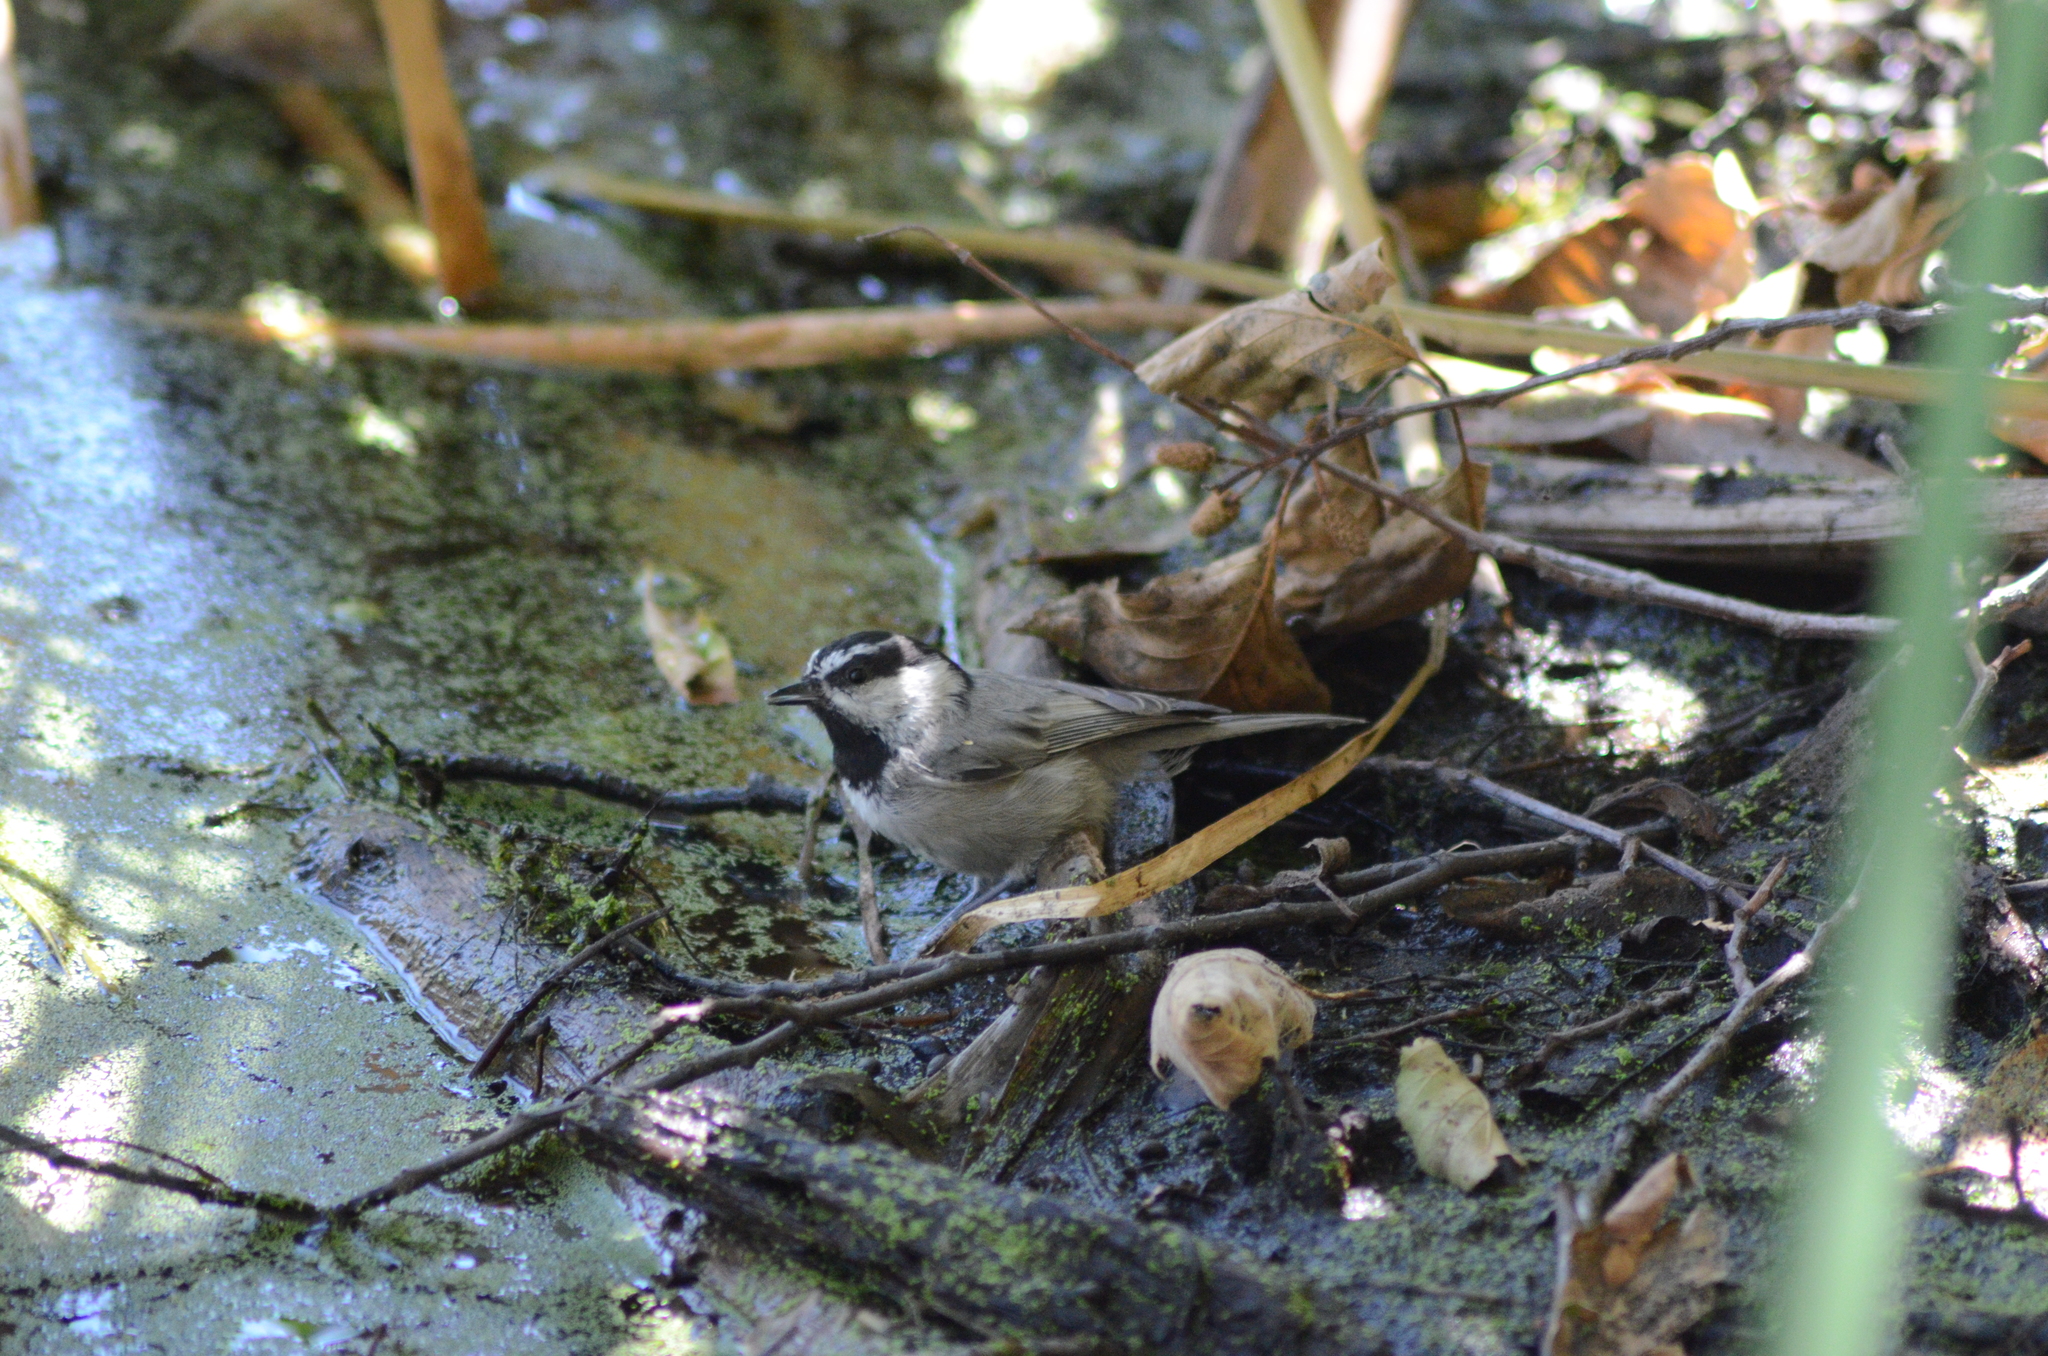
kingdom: Animalia
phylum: Chordata
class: Aves
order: Passeriformes
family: Paridae
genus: Poecile
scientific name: Poecile gambeli
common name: Mountain chickadee
